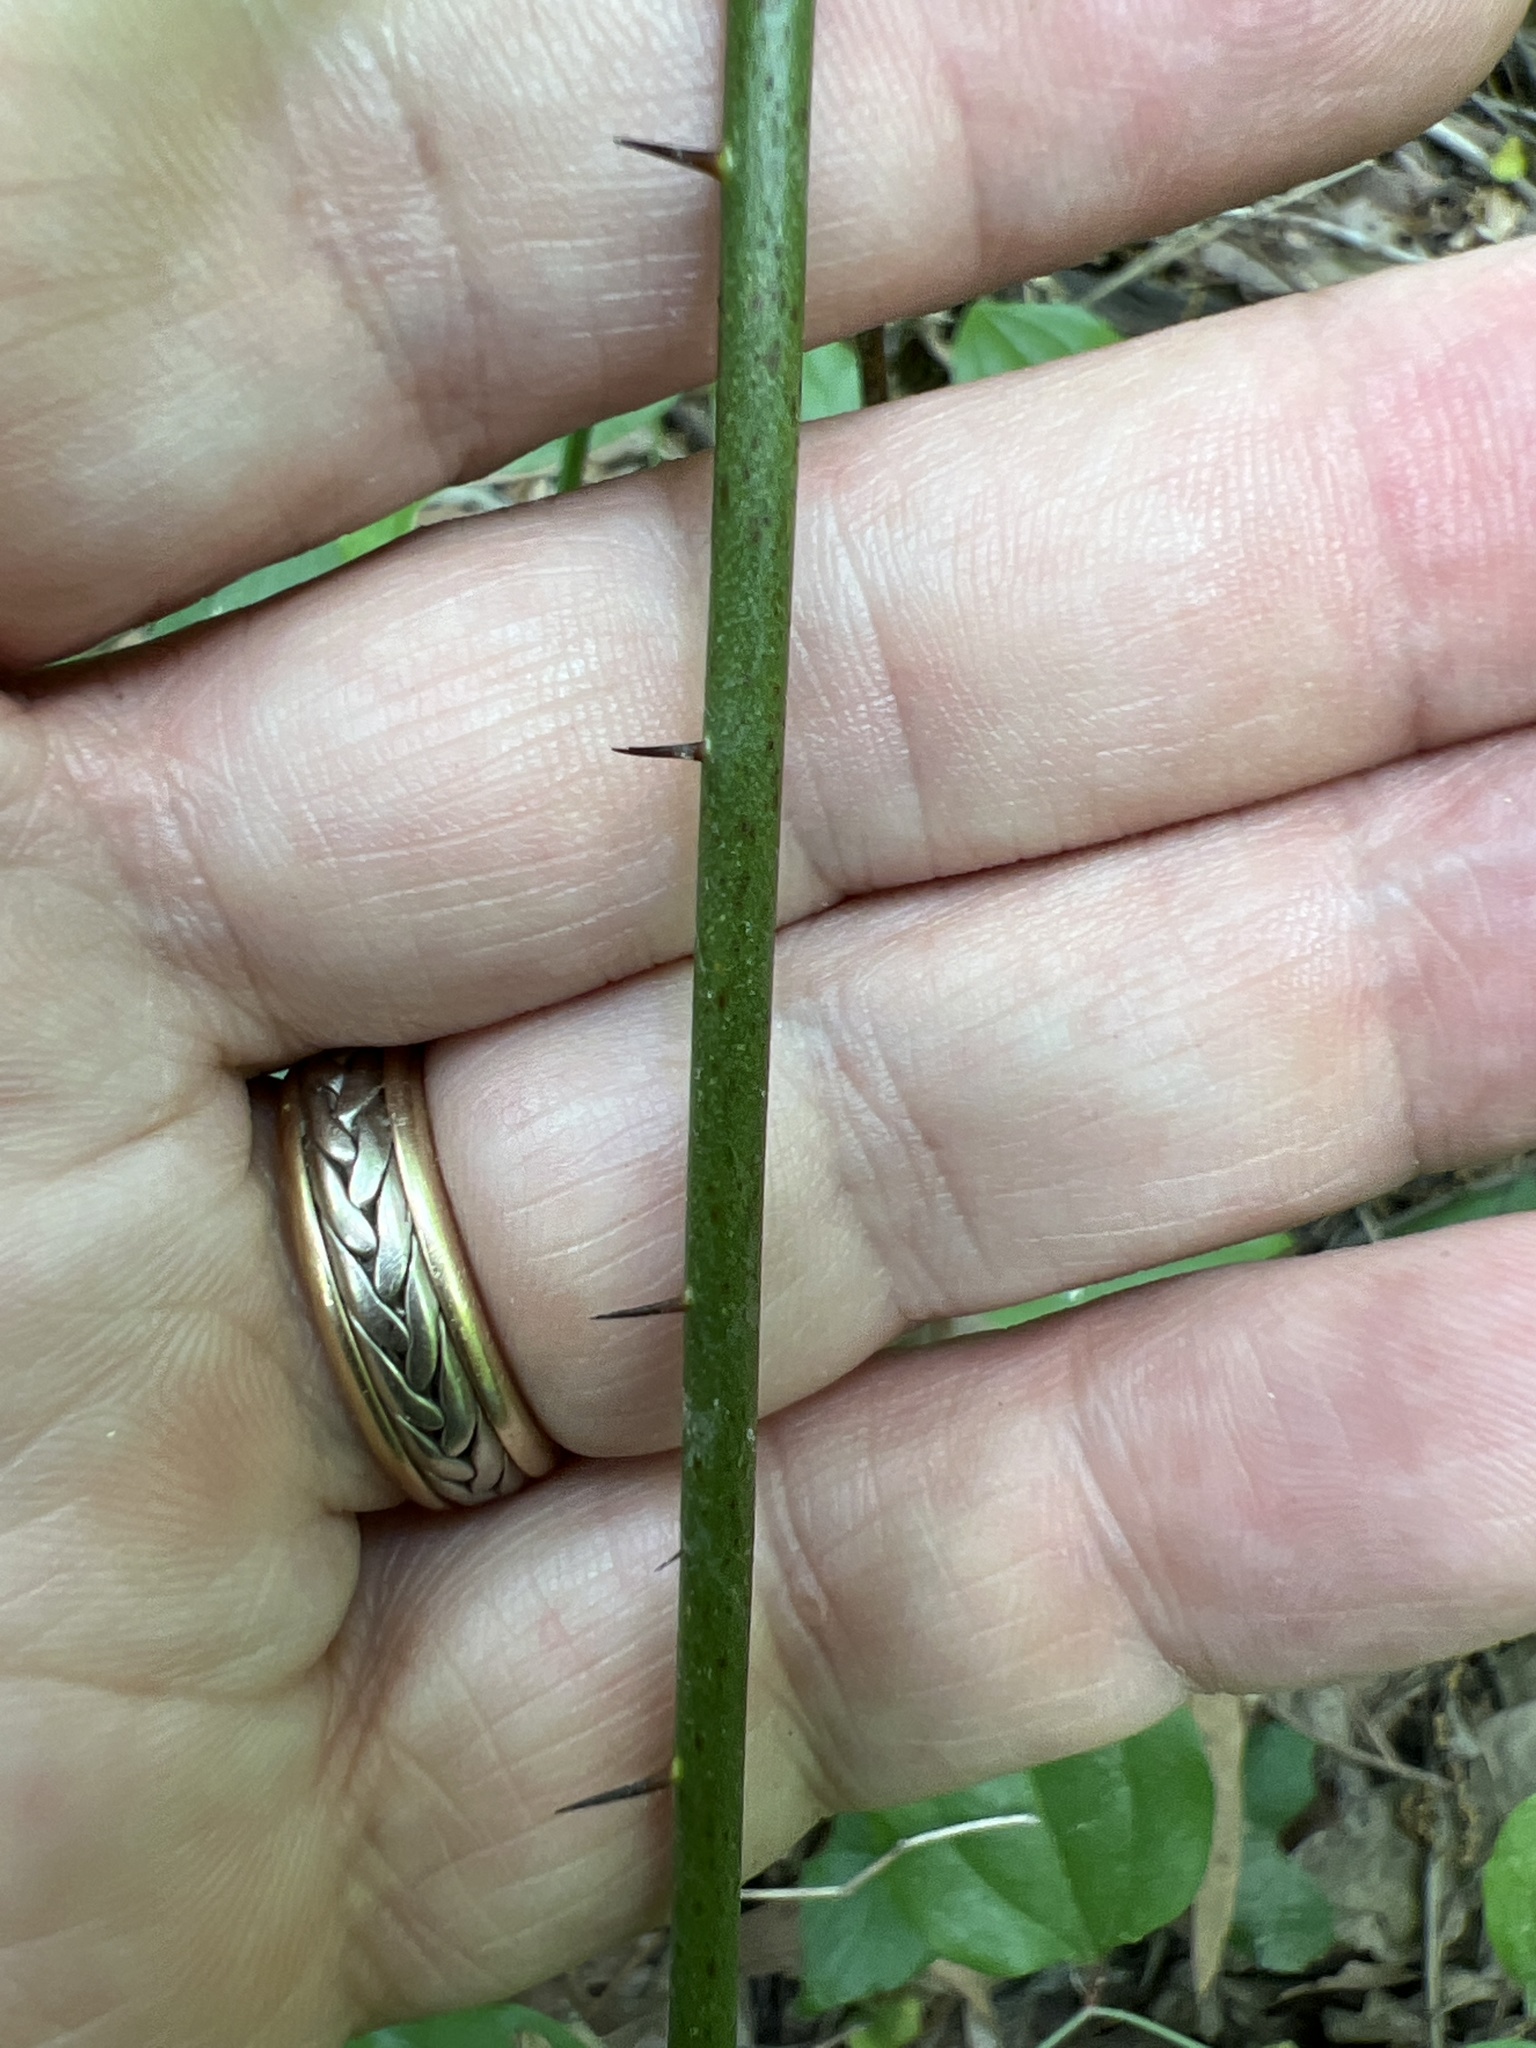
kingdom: Plantae
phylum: Tracheophyta
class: Liliopsida
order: Liliales
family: Smilacaceae
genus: Smilax
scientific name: Smilax tamnoides
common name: Hellfetter
